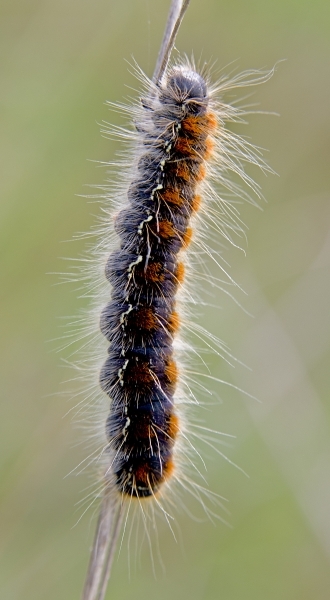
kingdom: Animalia
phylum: Arthropoda
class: Insecta
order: Lepidoptera
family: Lasiocampidae
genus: Eriogaster
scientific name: Eriogaster lanestris
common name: Small eggar
